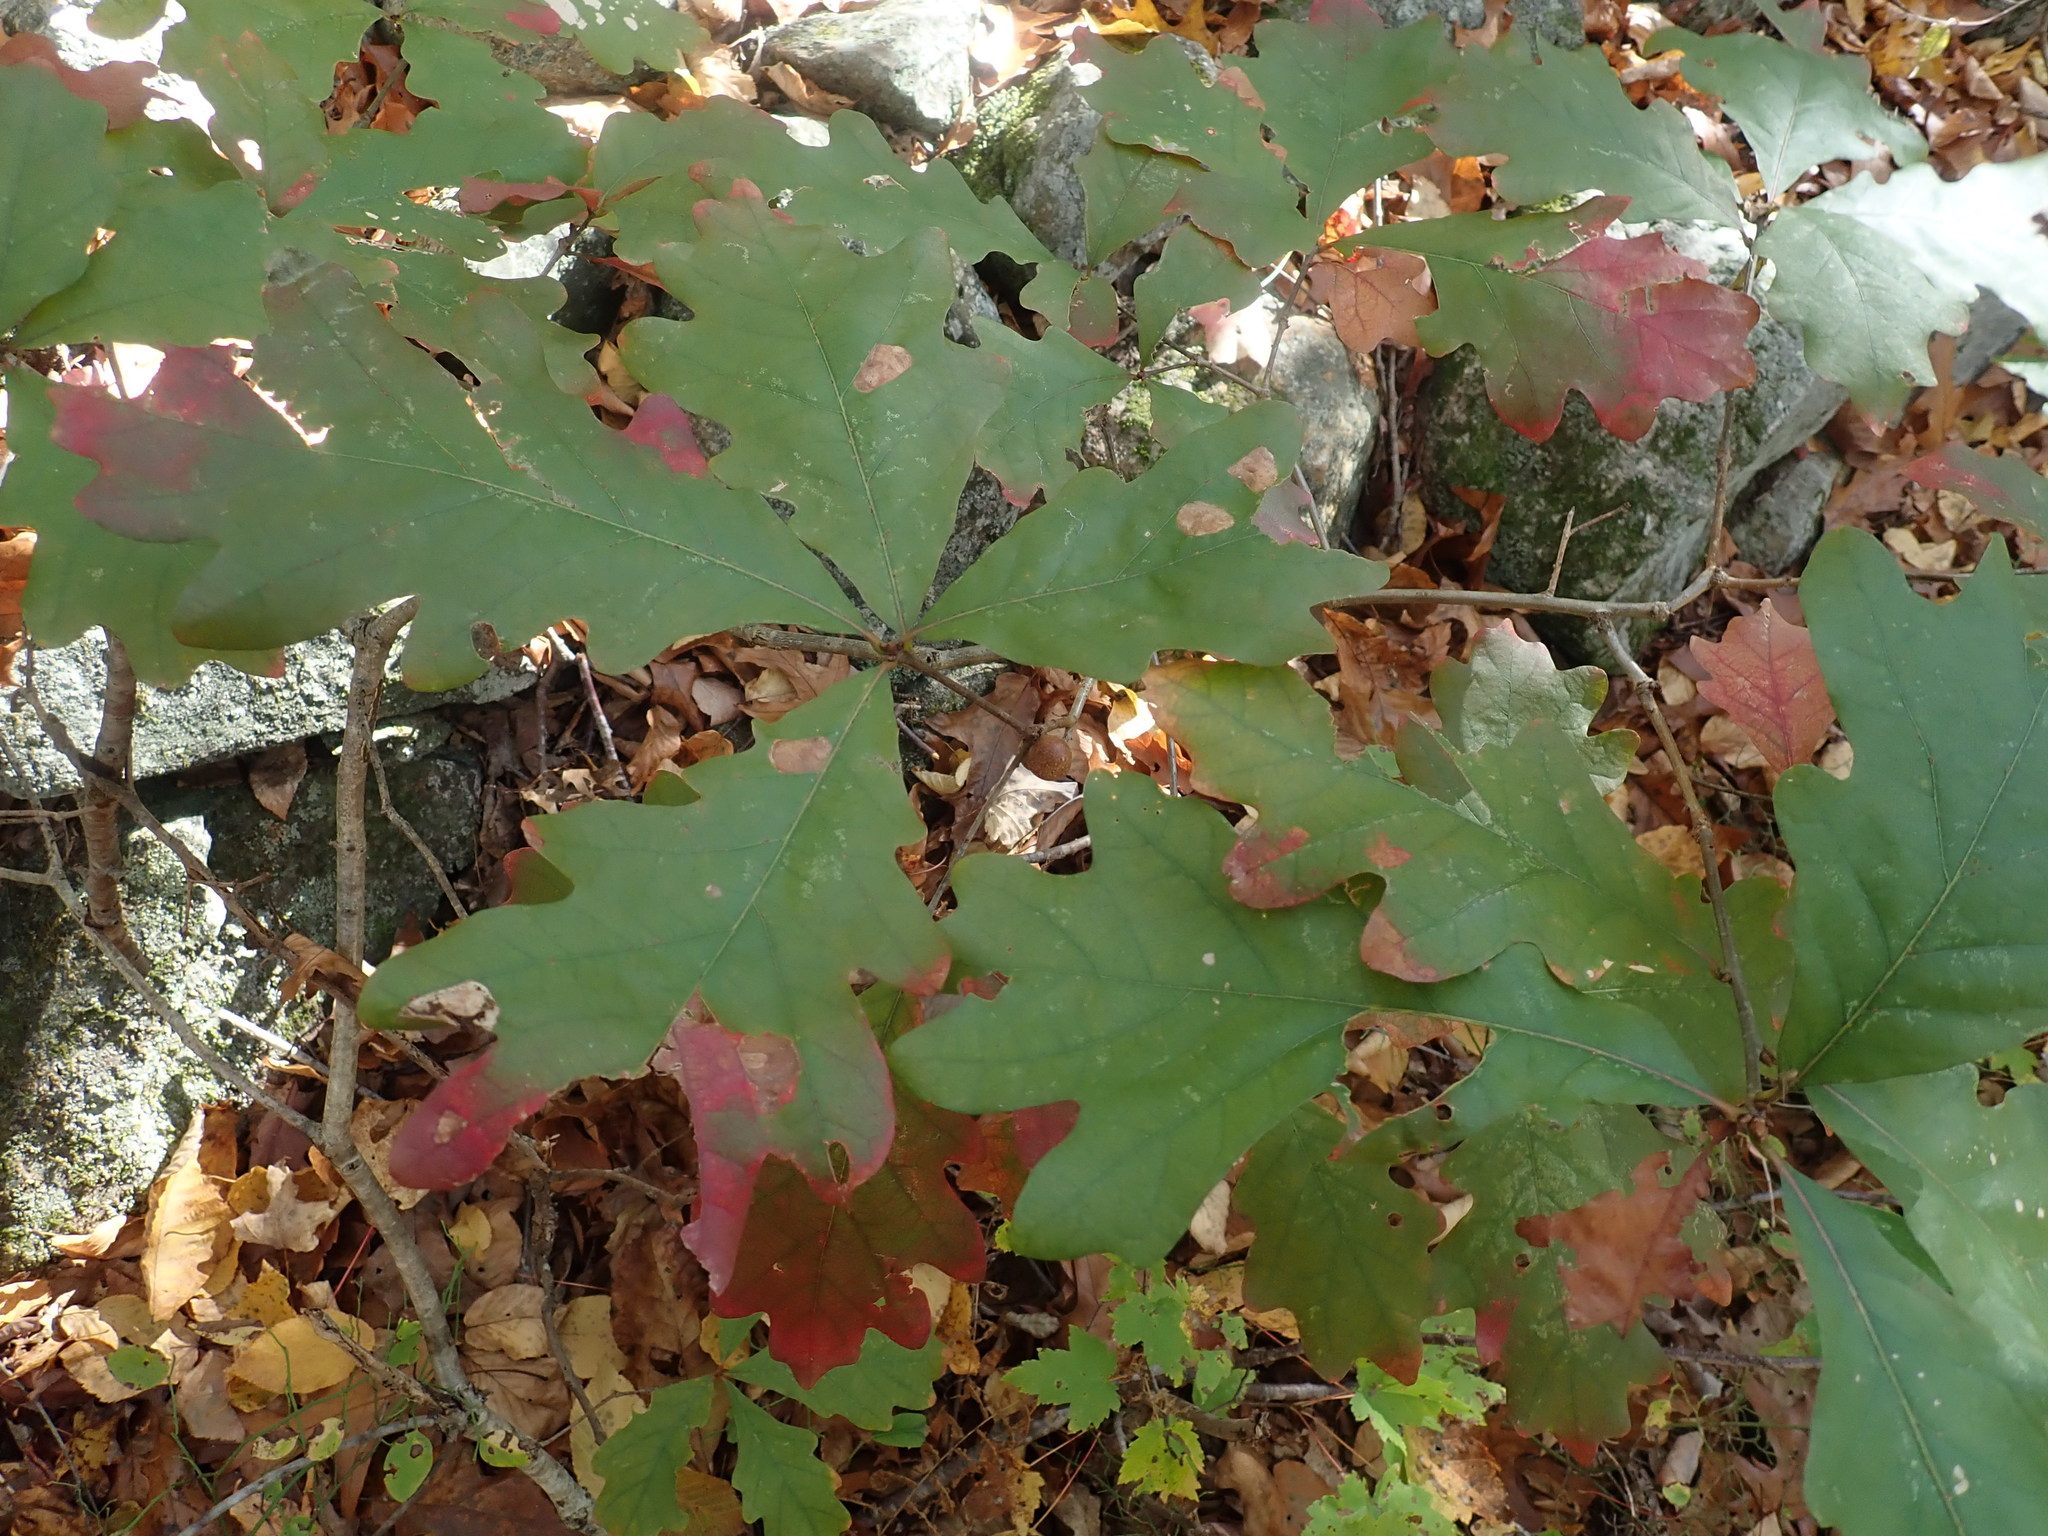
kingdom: Plantae
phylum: Tracheophyta
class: Magnoliopsida
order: Fagales
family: Fagaceae
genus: Quercus
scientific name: Quercus alba
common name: White oak
